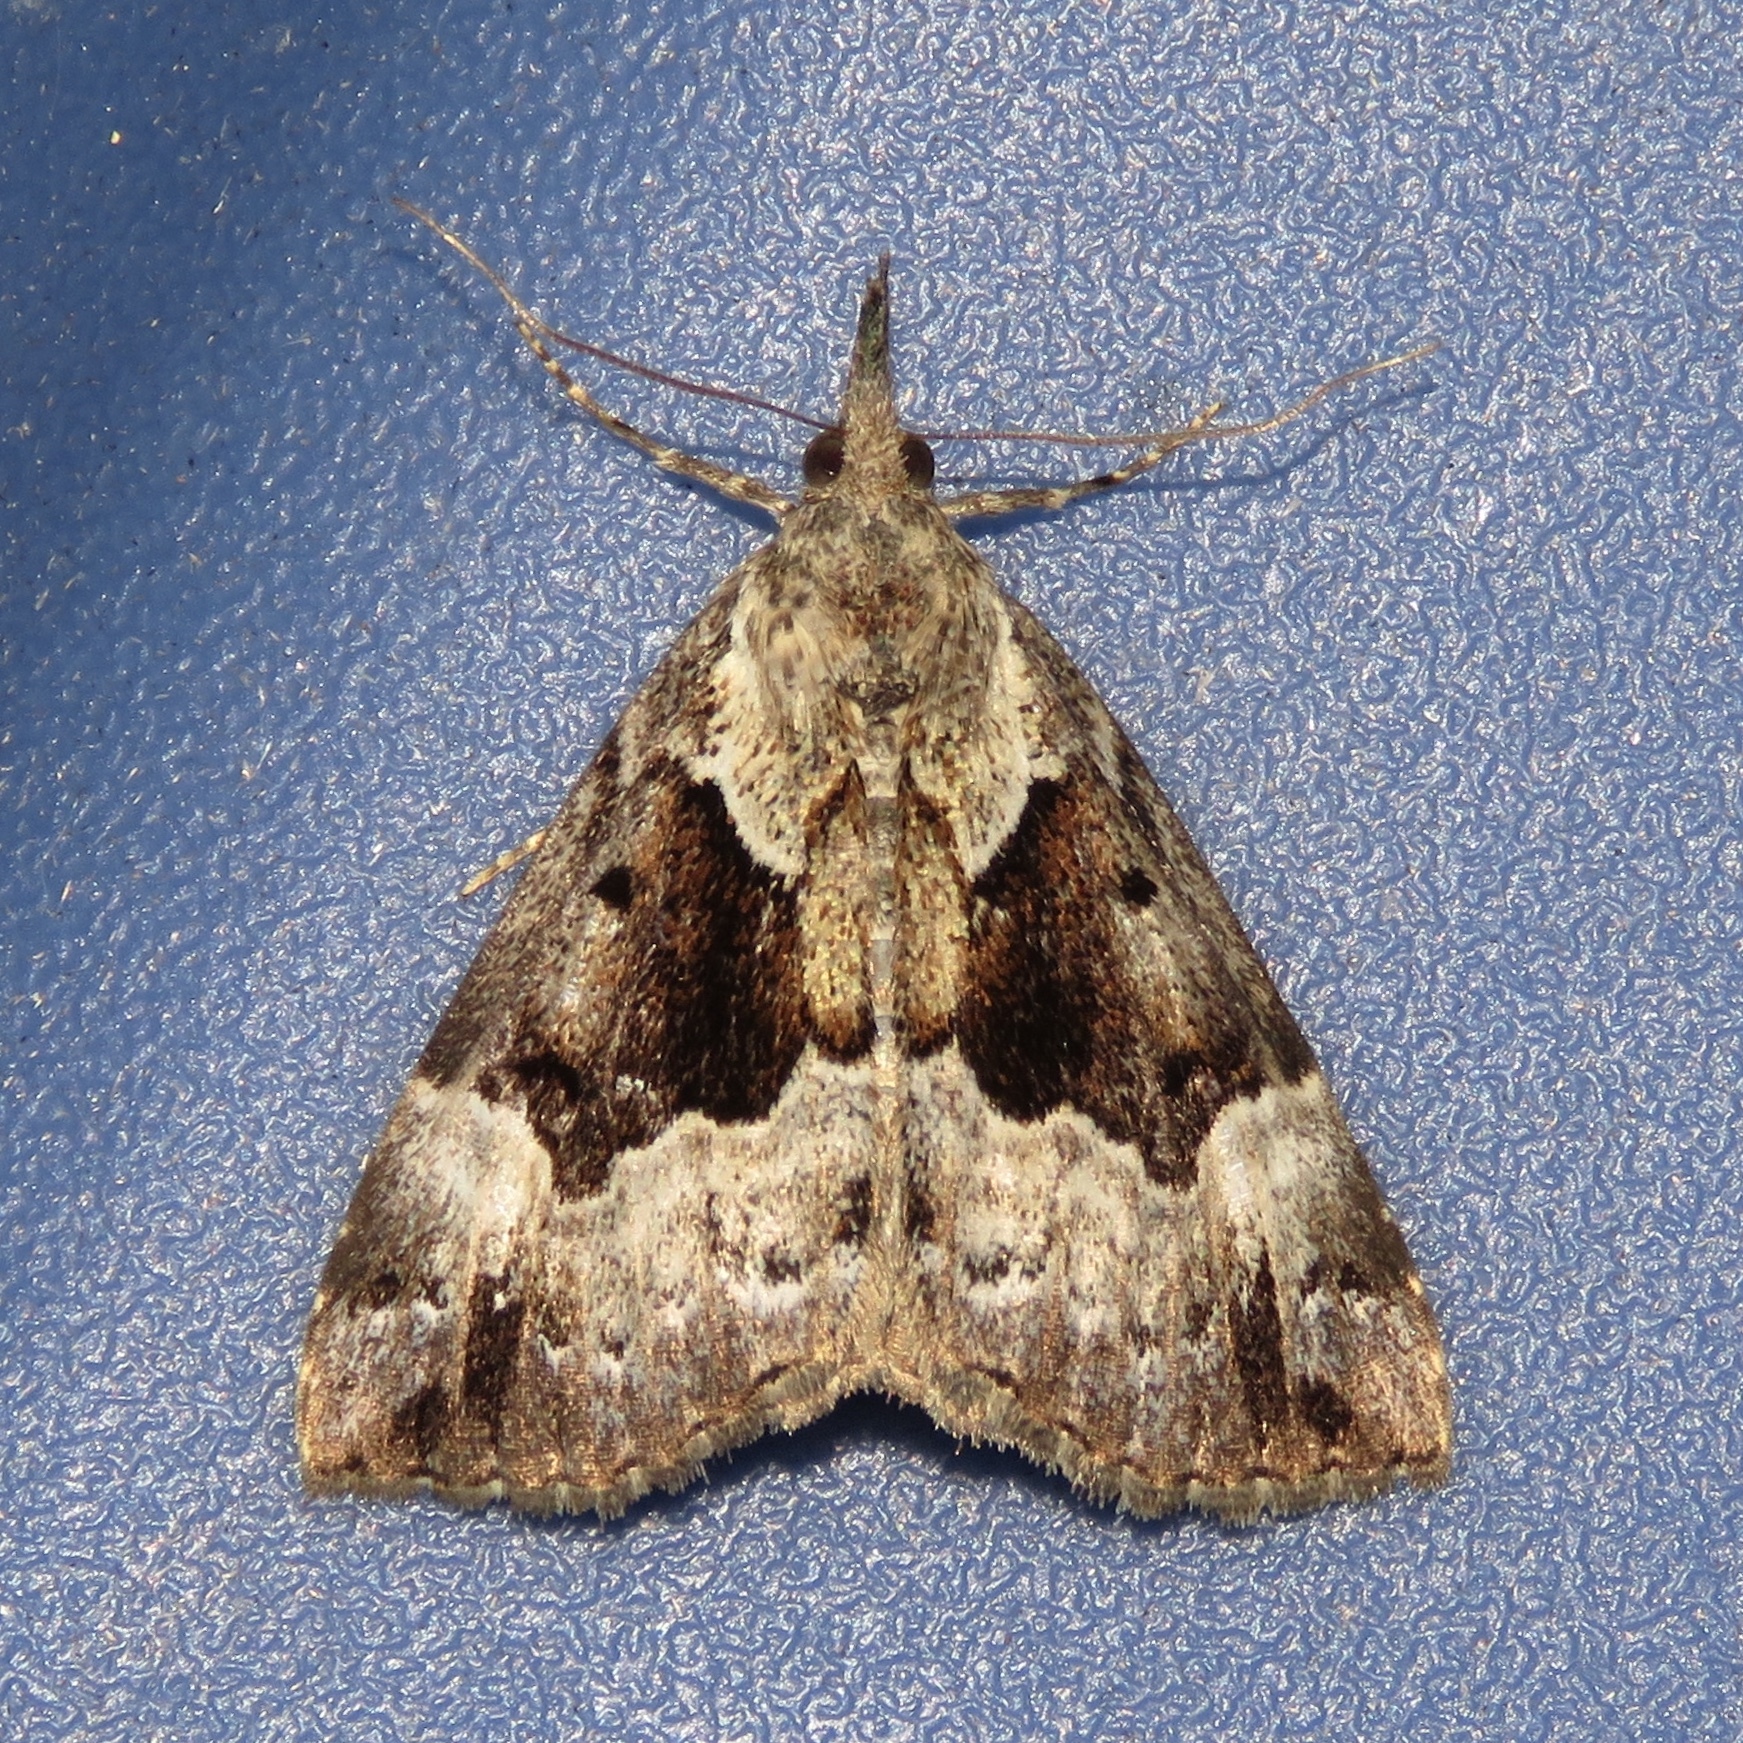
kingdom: Animalia
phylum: Arthropoda
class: Insecta
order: Lepidoptera
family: Erebidae
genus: Hypena
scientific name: Hypena palparia
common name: Mottled bomolocha moth
